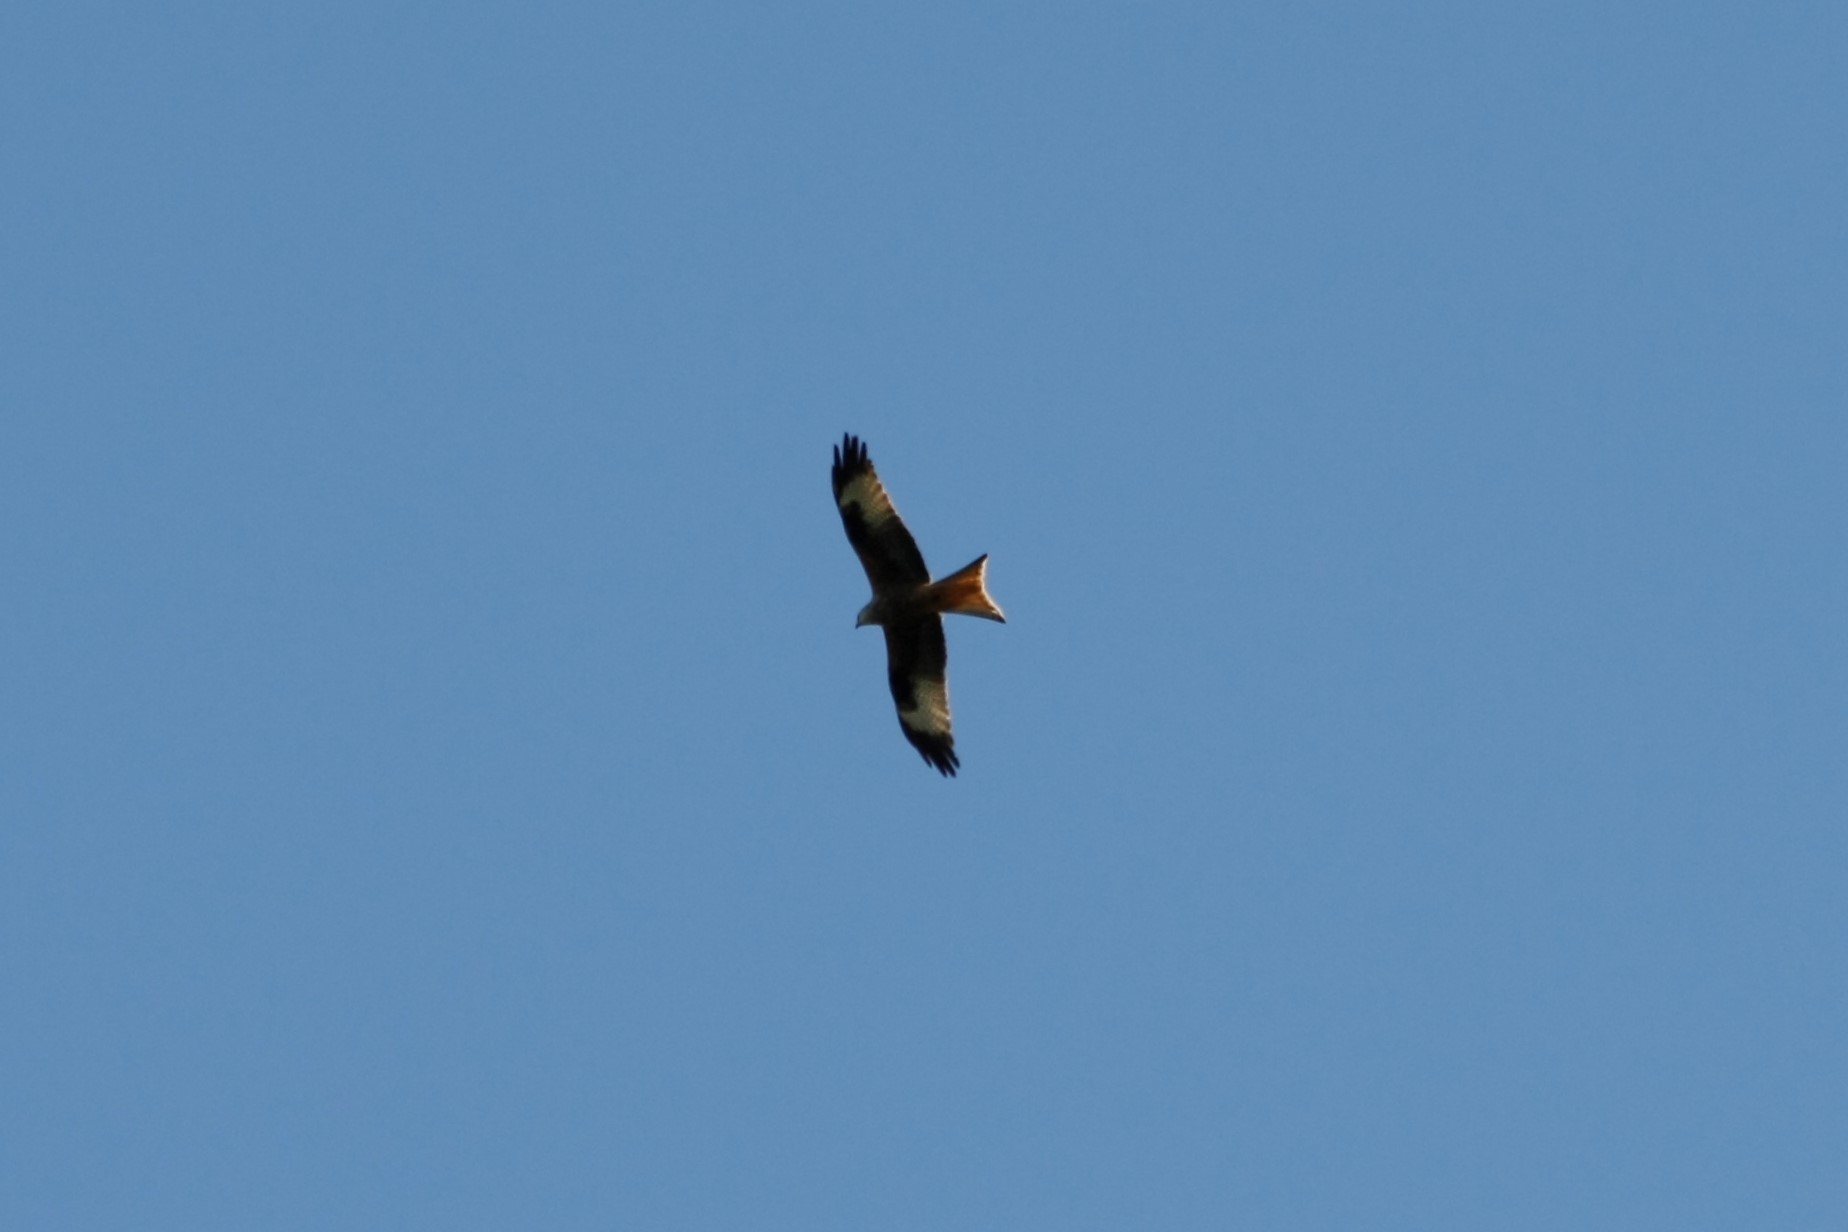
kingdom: Animalia
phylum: Chordata
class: Aves
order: Accipitriformes
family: Accipitridae
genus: Milvus
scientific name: Milvus milvus
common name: Red kite
